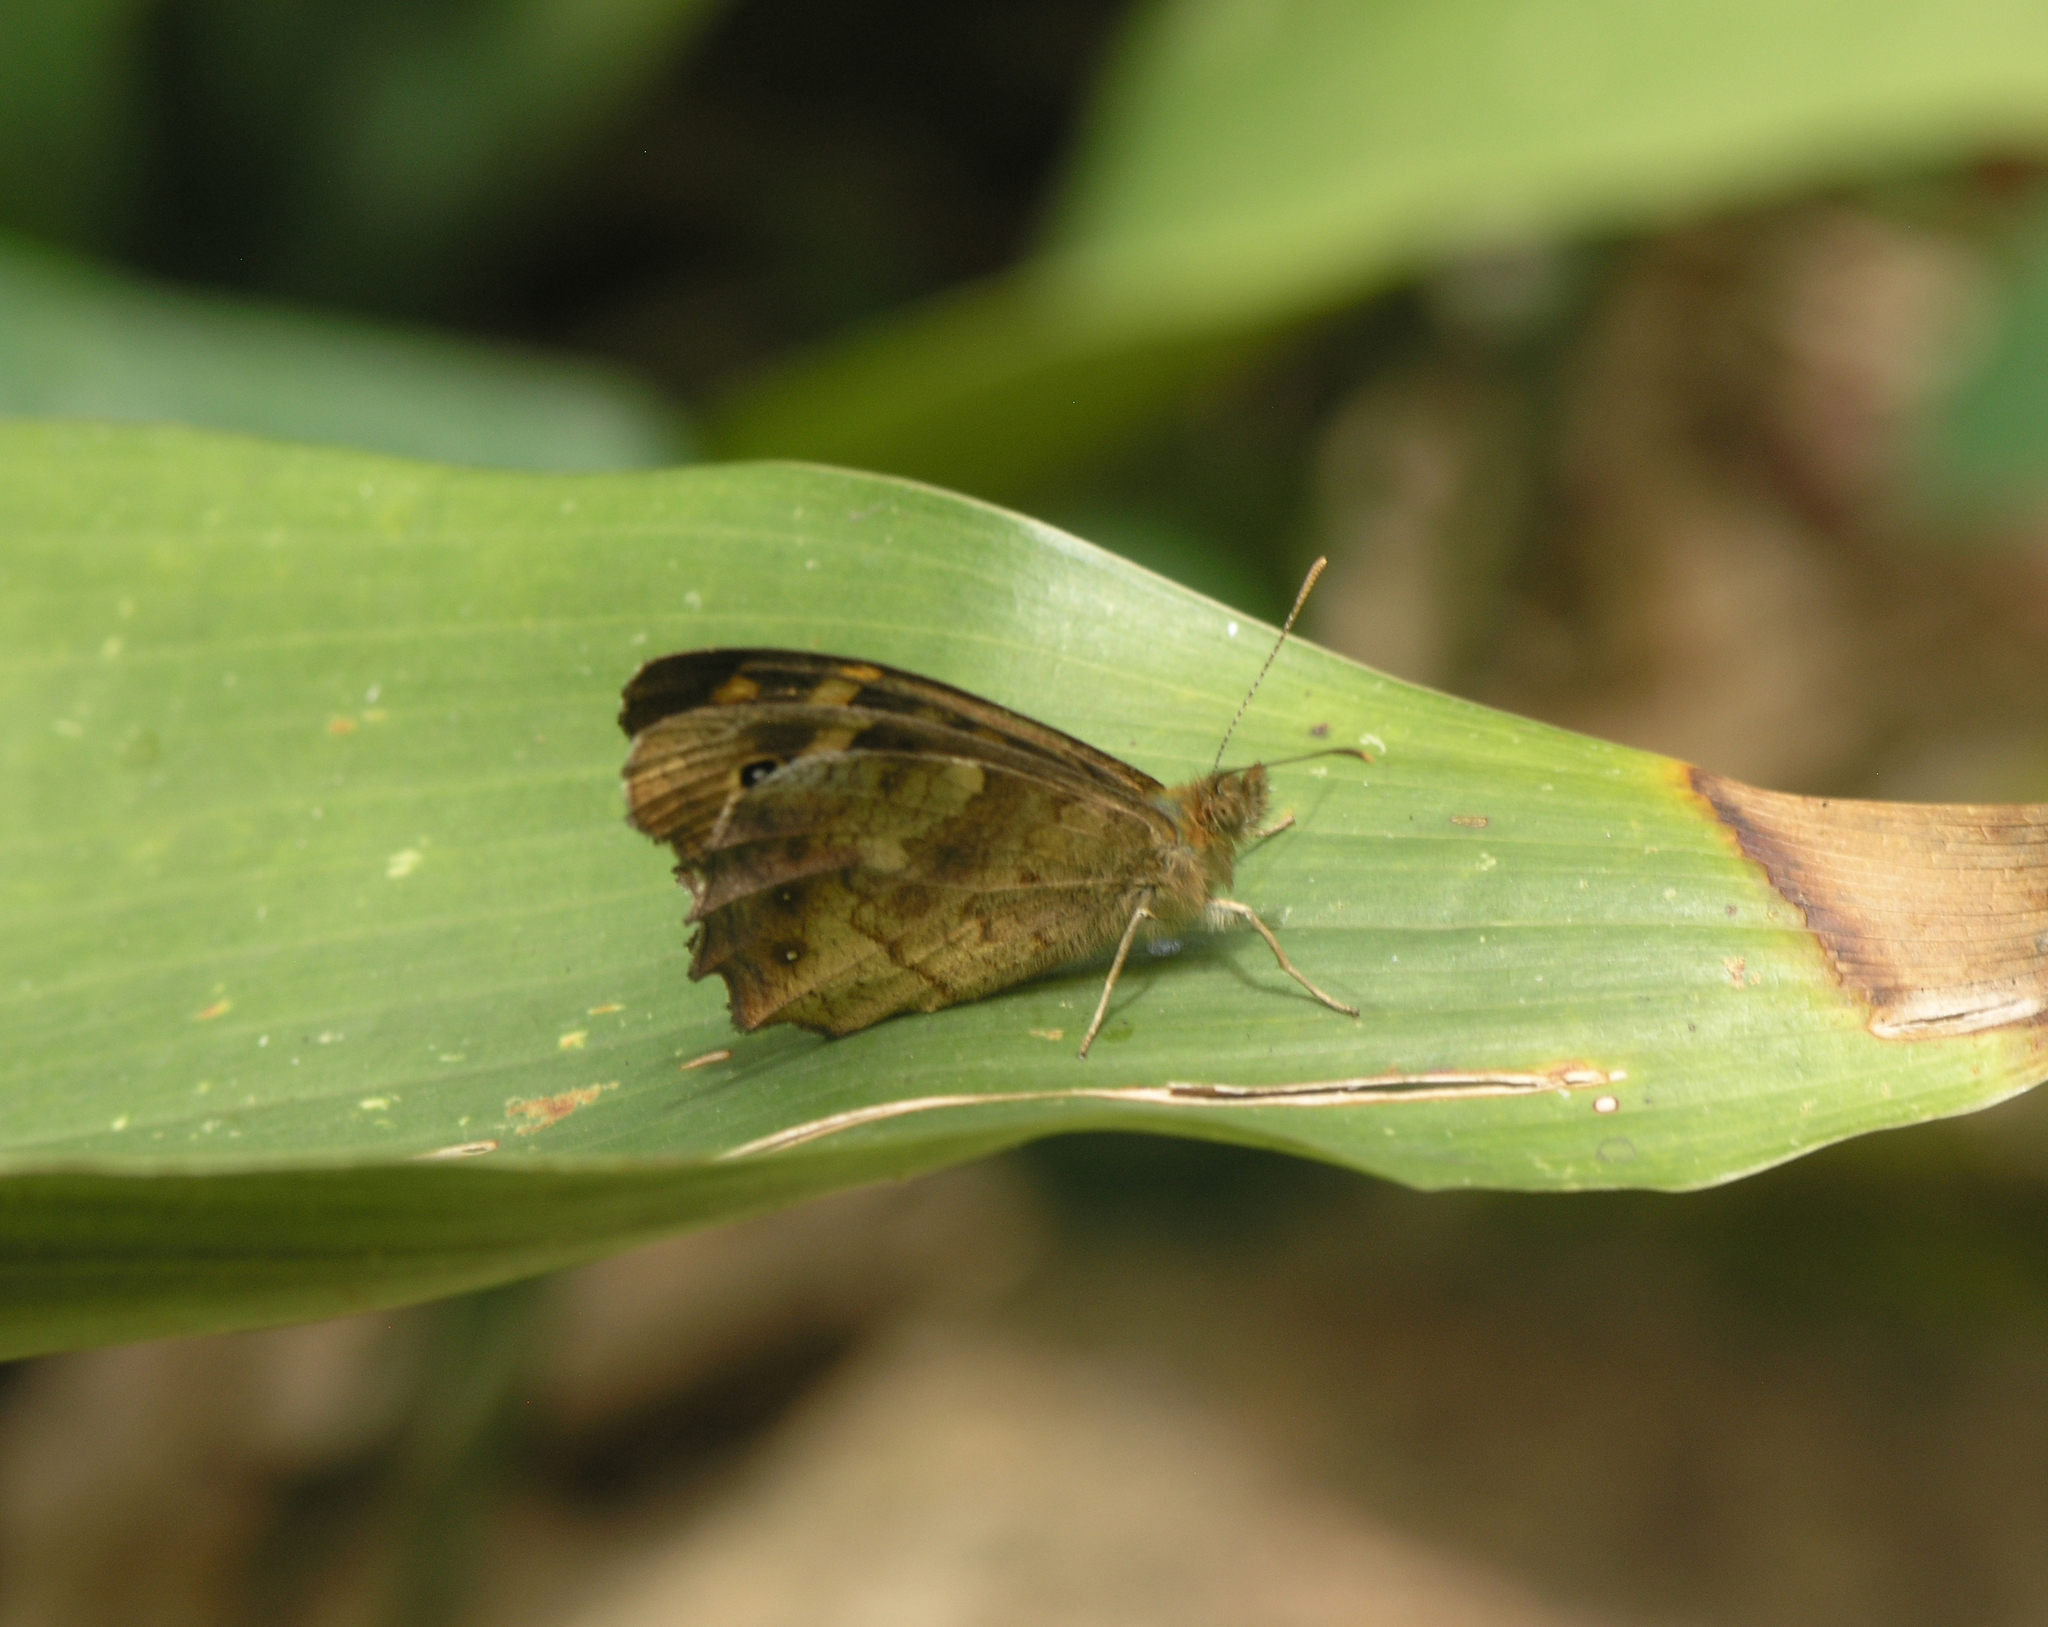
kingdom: Animalia
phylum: Arthropoda
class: Insecta
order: Lepidoptera
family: Nymphalidae
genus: Pararge
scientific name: Pararge aegeria
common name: Speckled wood
